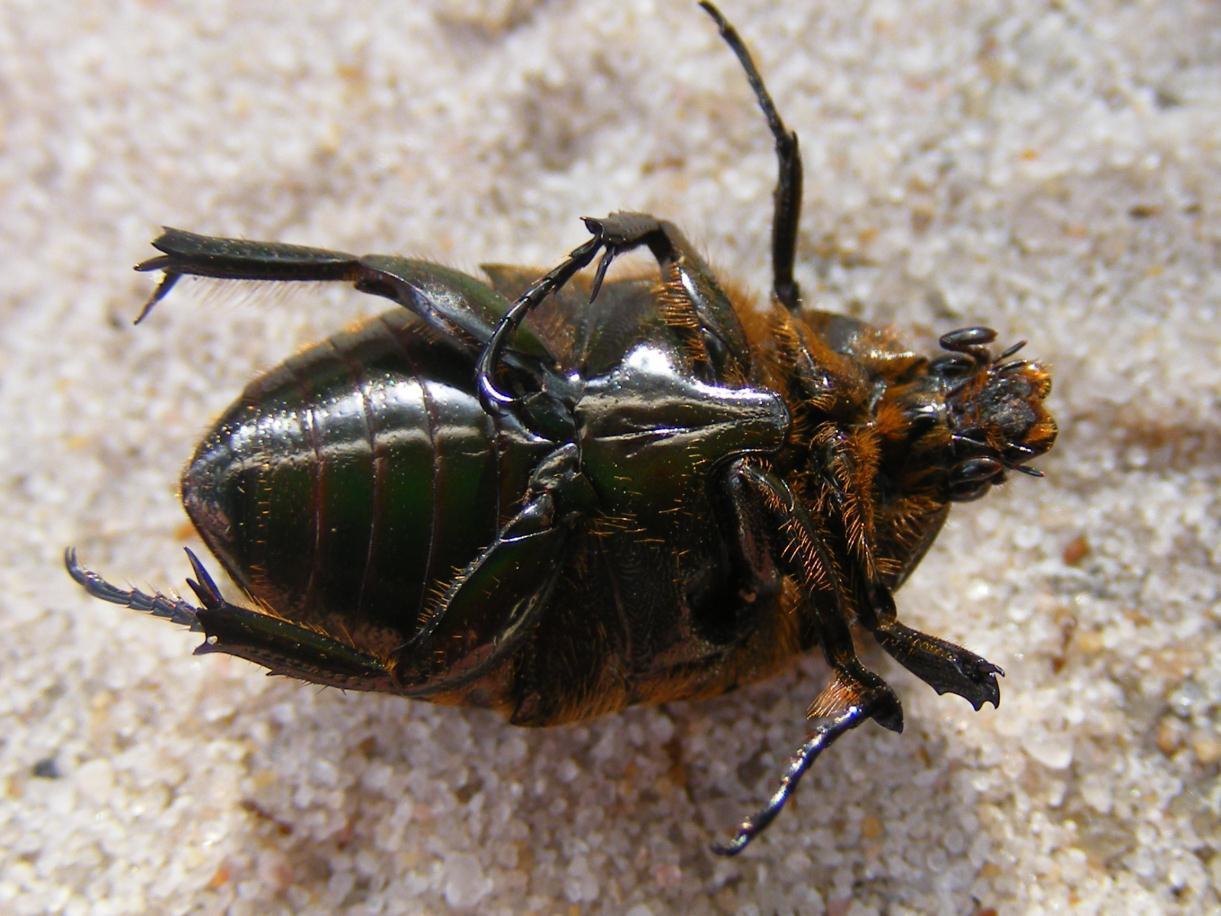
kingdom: Animalia
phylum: Arthropoda
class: Insecta
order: Coleoptera
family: Scarabaeidae
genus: Lamellothyrea
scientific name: Lamellothyrea descarpentriesi
